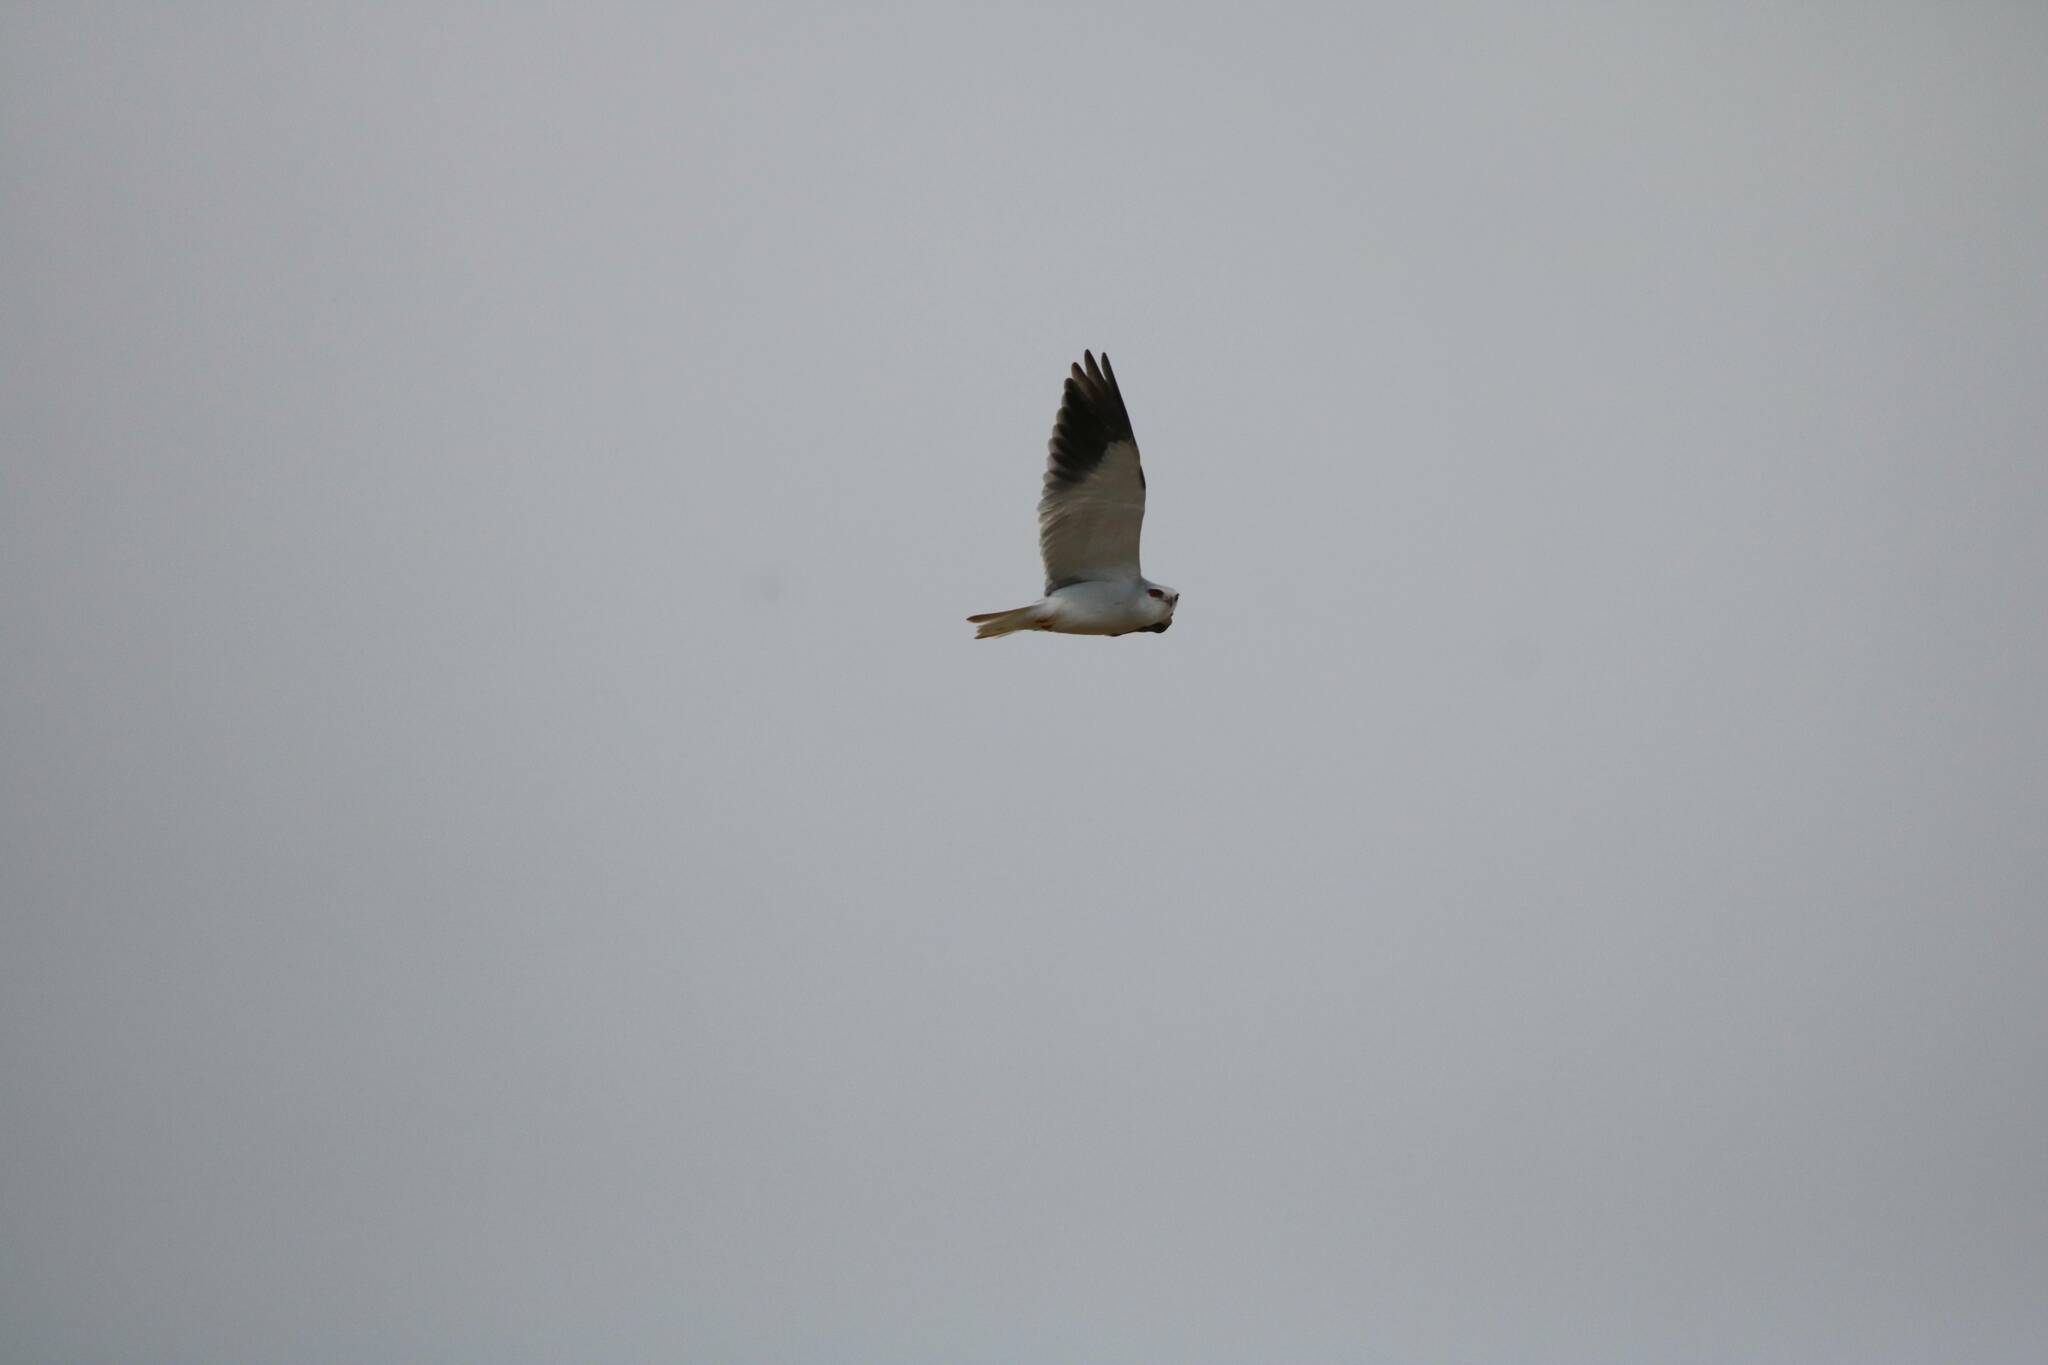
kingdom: Animalia
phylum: Chordata
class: Aves
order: Accipitriformes
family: Accipitridae
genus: Elanus
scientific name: Elanus caeruleus
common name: Black-winged kite
